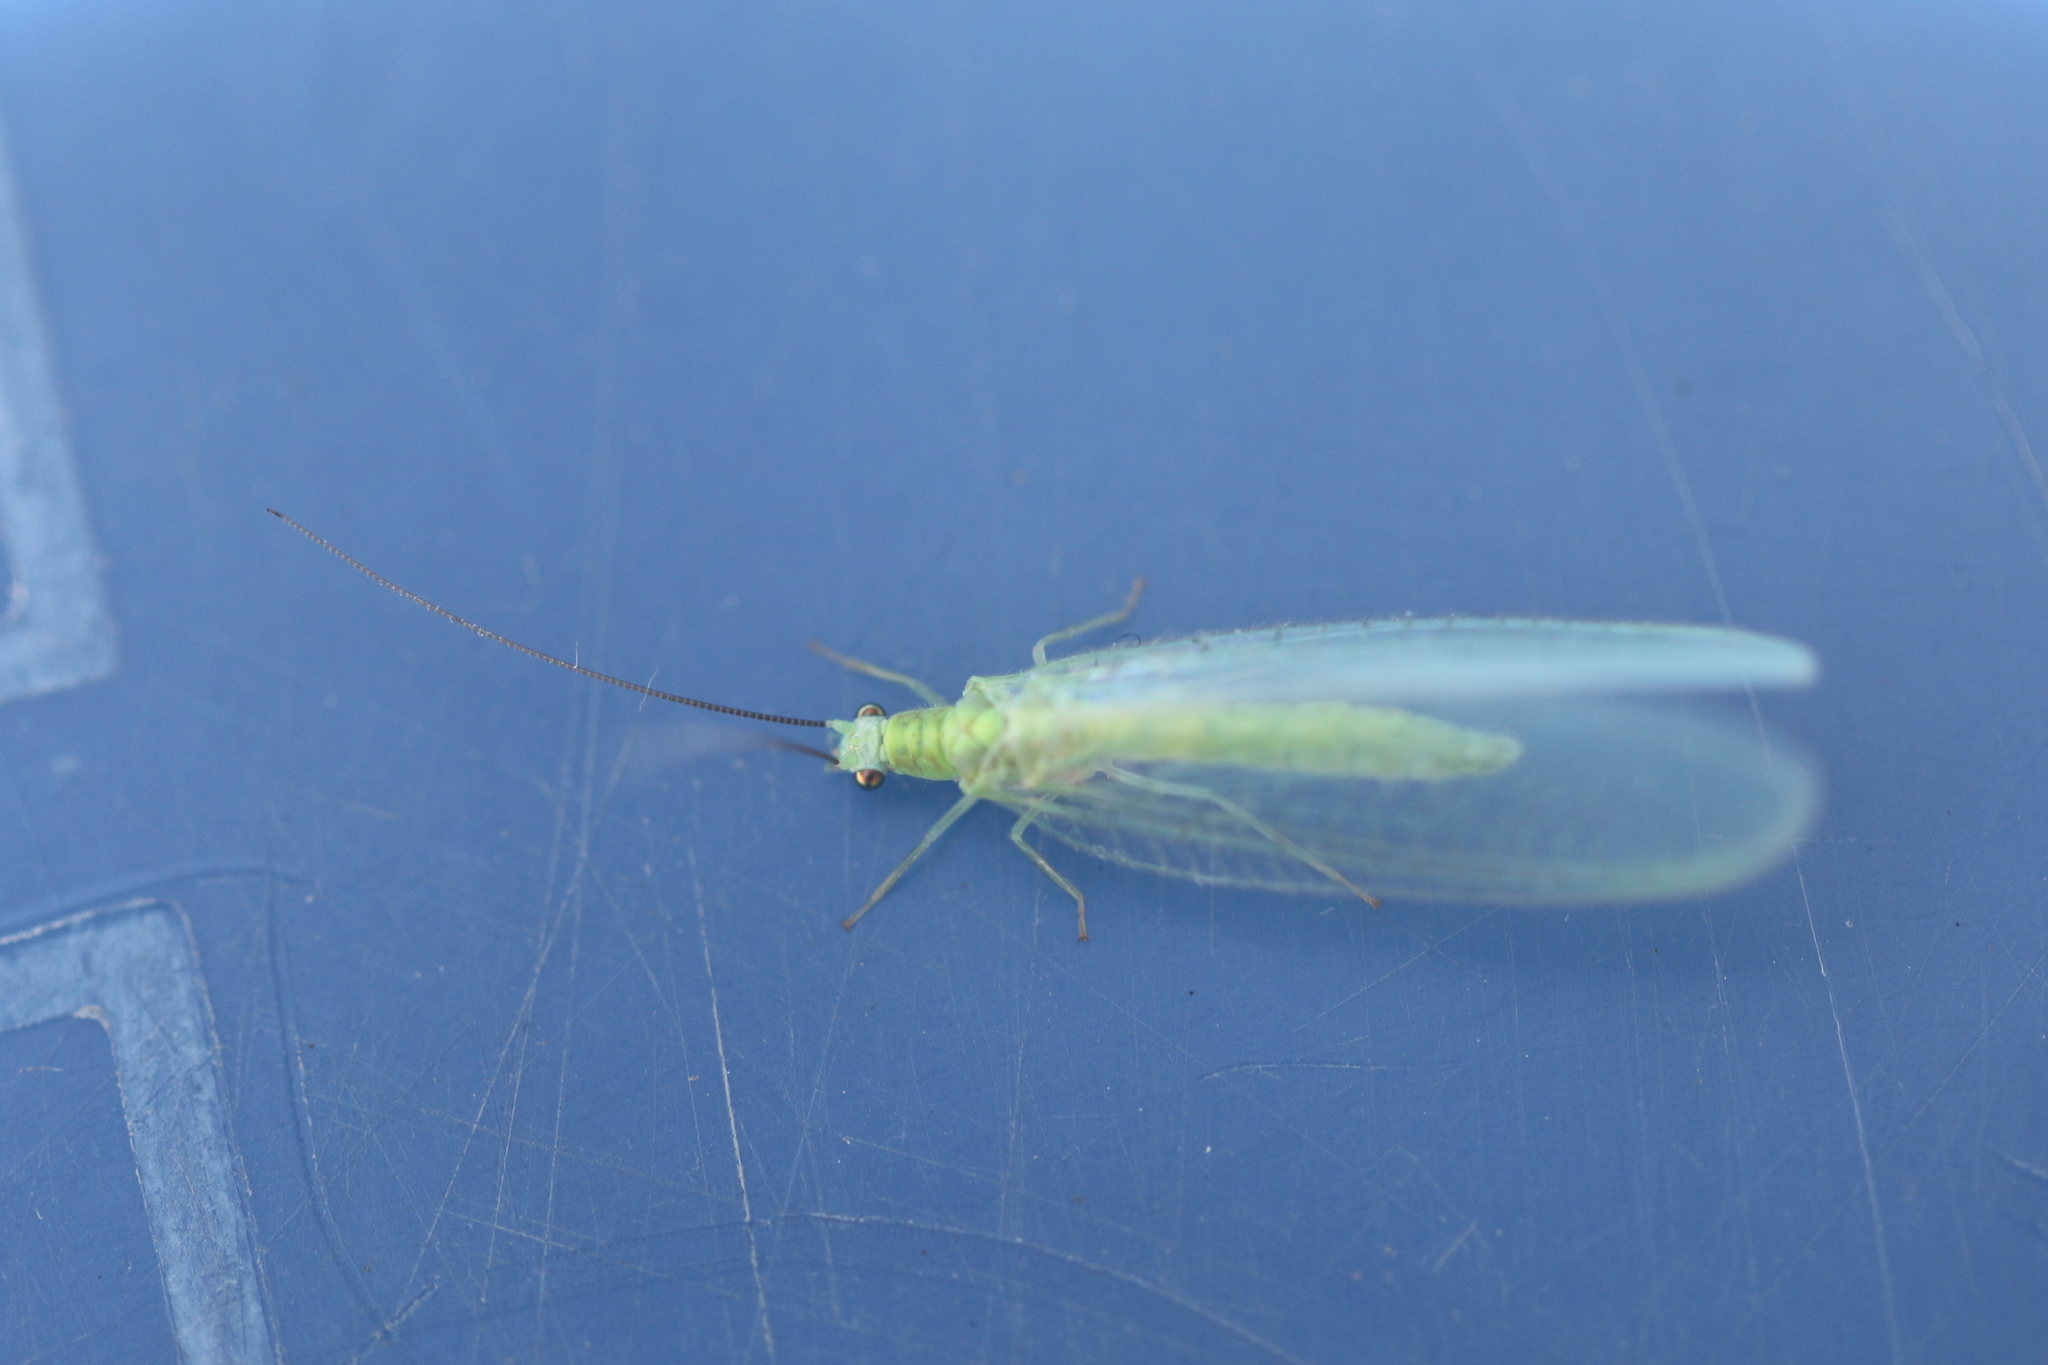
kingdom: Animalia
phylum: Arthropoda
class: Insecta
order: Neuroptera
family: Chrysopidae
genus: Chrysopa
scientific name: Chrysopa nigricornis
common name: Black-horned green lacewing
